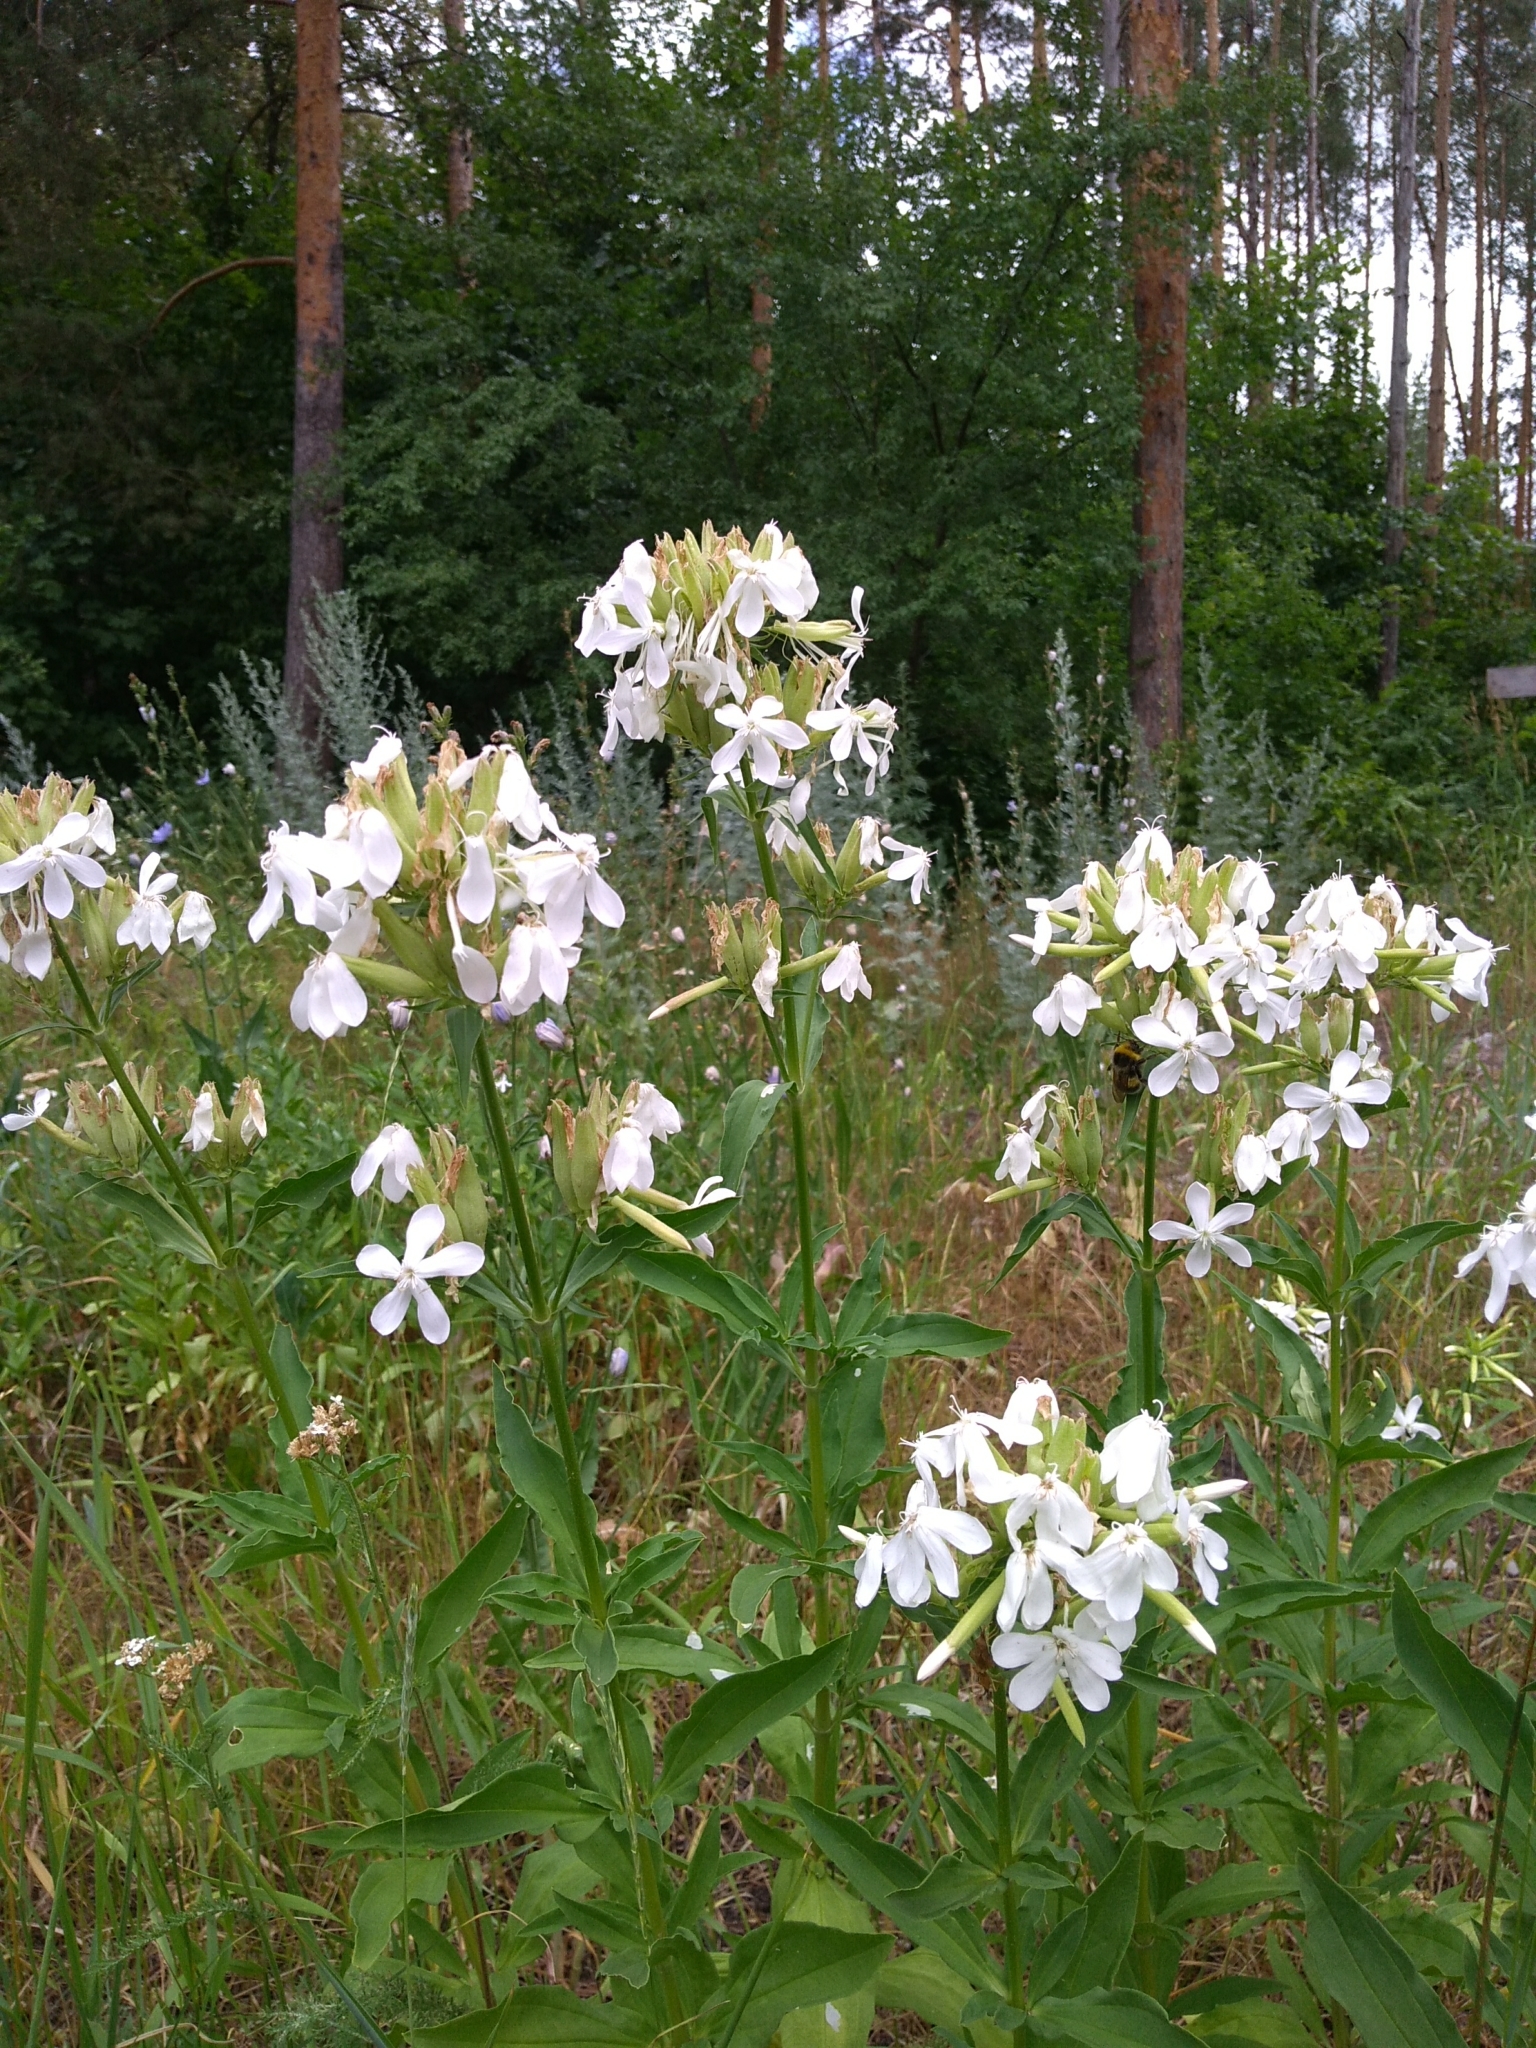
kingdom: Plantae
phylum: Tracheophyta
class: Magnoliopsida
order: Caryophyllales
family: Caryophyllaceae
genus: Saponaria
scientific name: Saponaria officinalis
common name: Soapwort
